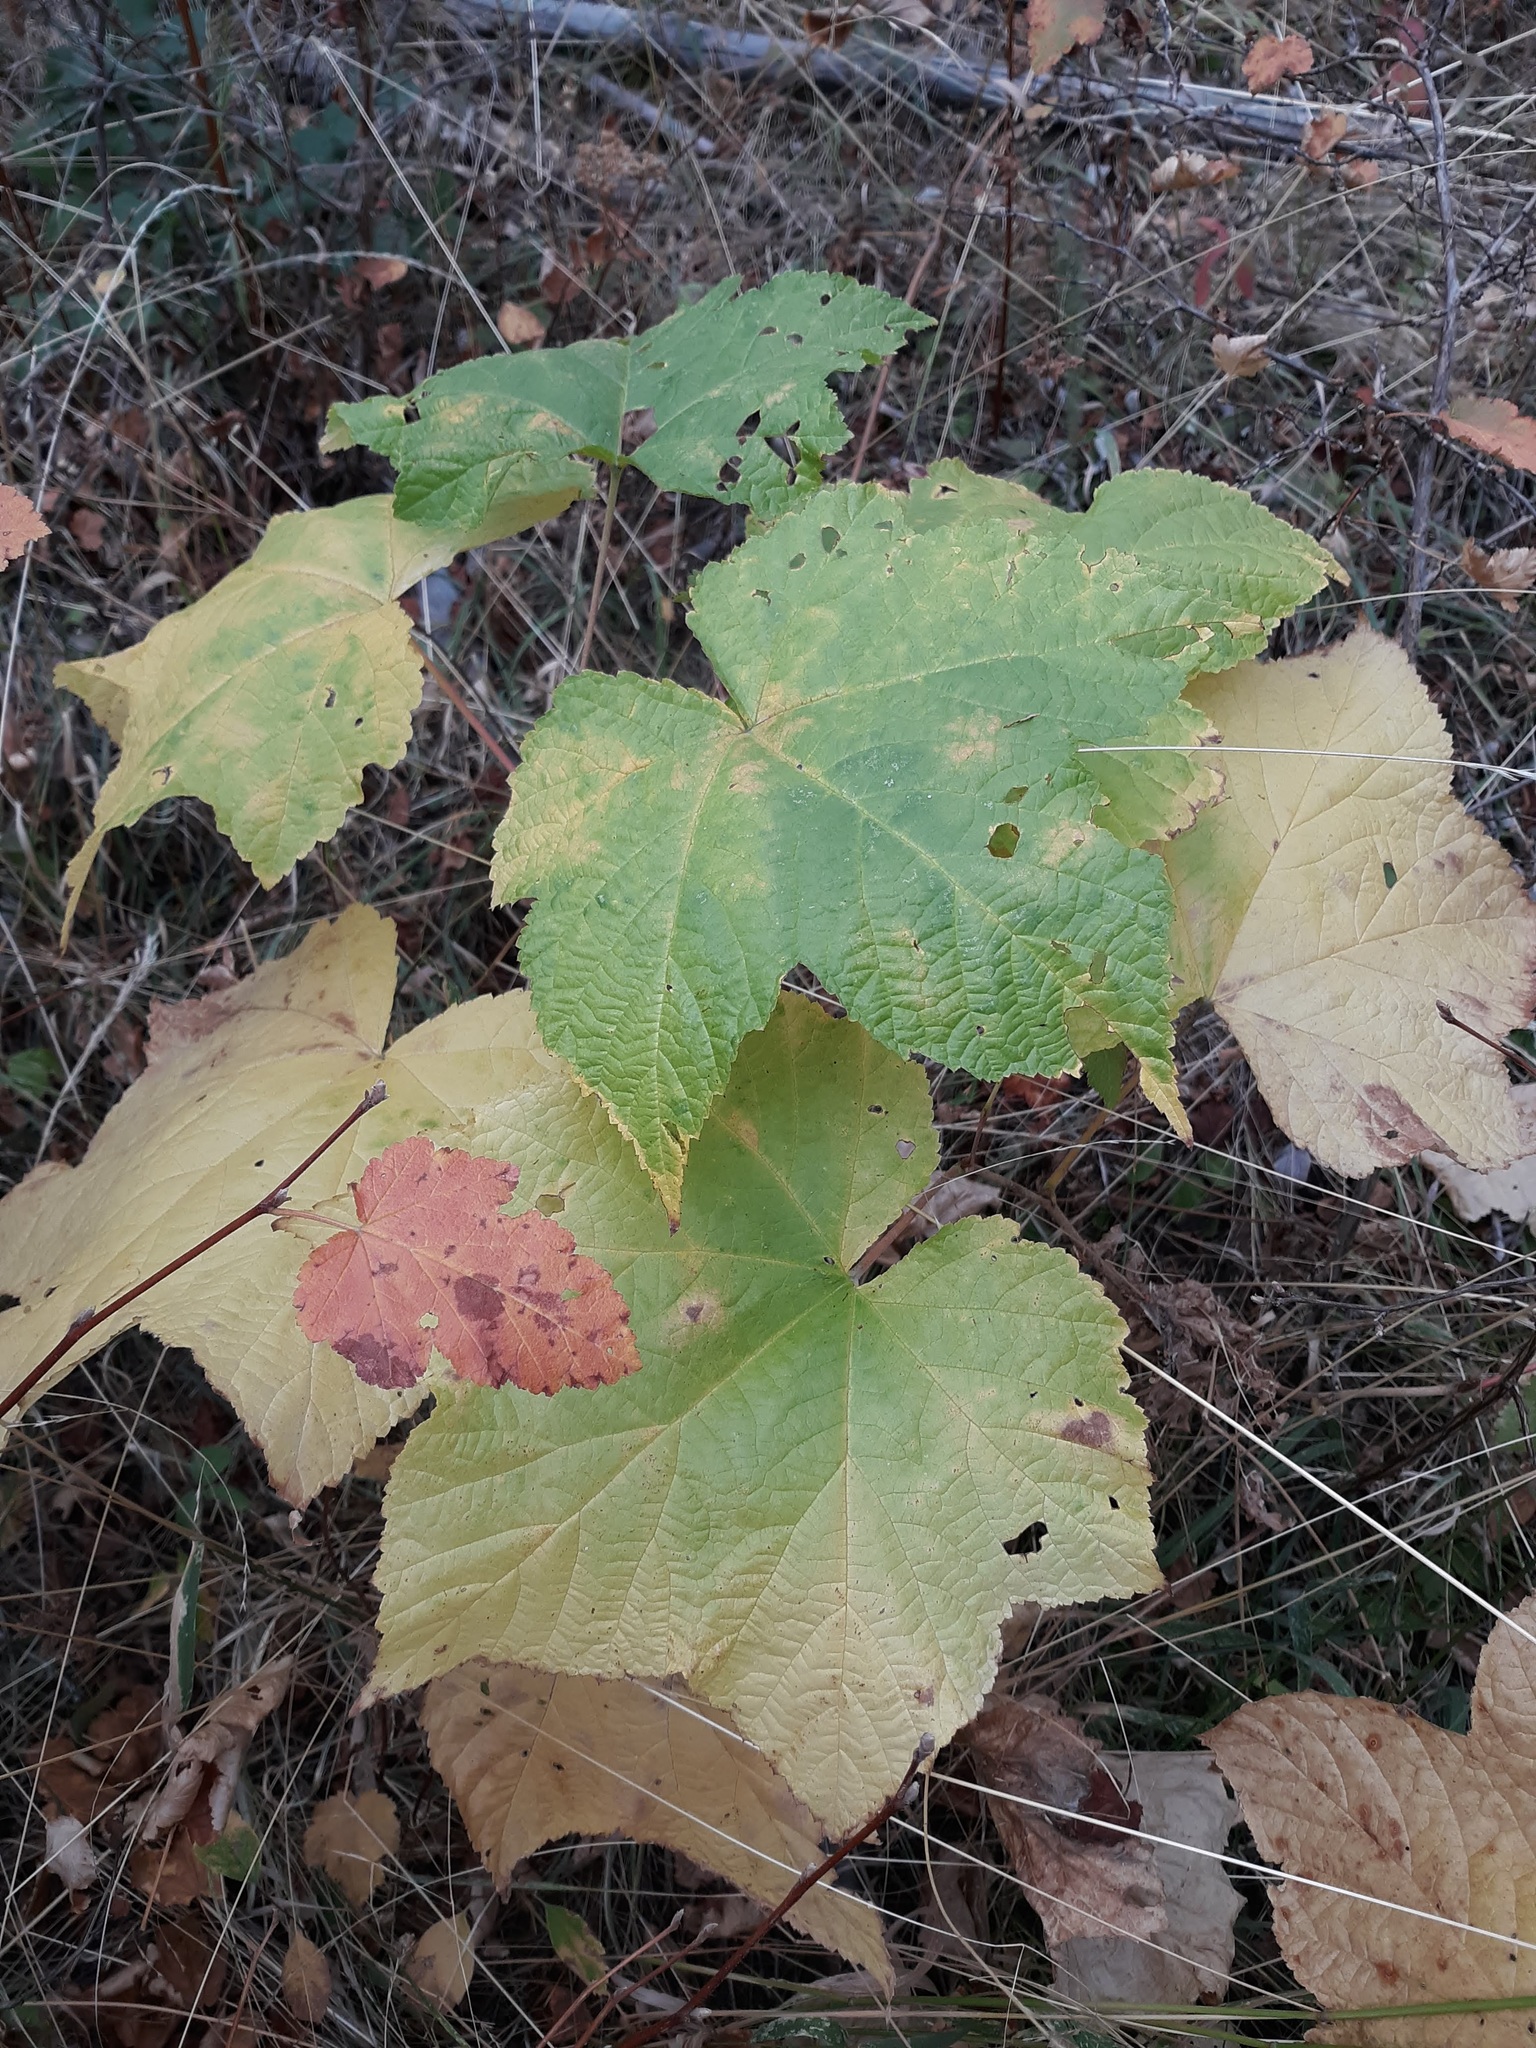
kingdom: Plantae
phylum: Tracheophyta
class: Magnoliopsida
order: Rosales
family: Rosaceae
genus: Rubus
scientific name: Rubus parviflorus
